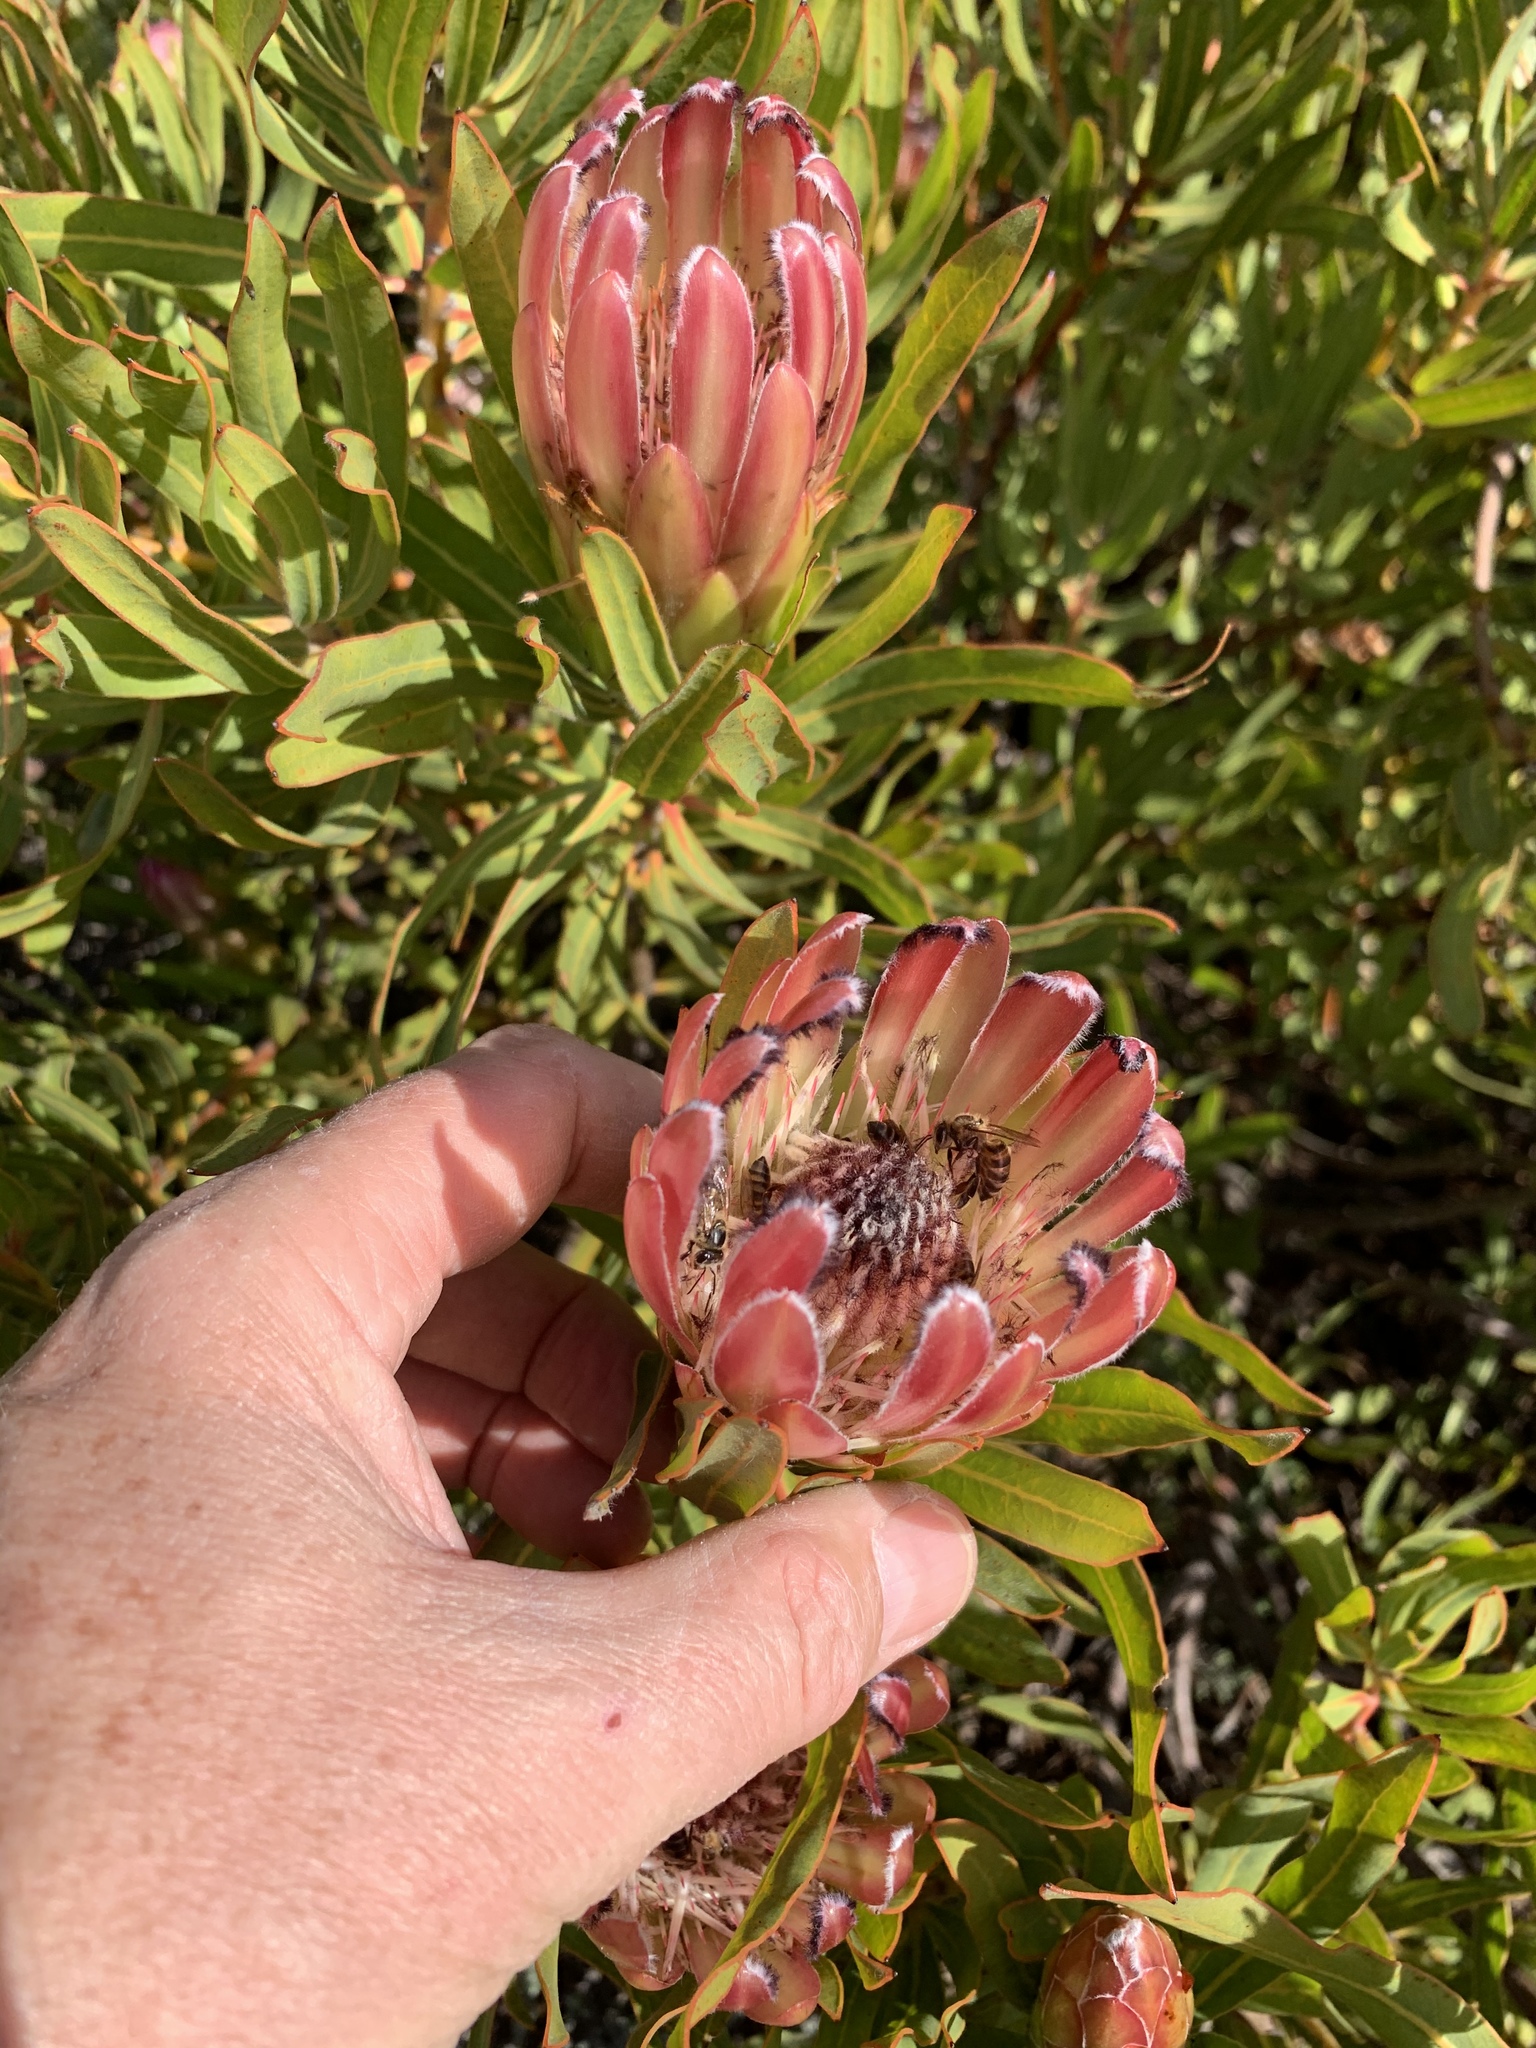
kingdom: Plantae
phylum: Tracheophyta
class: Magnoliopsida
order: Proteales
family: Proteaceae
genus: Protea
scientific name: Protea burchellii
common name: Burchell's sugarbush
